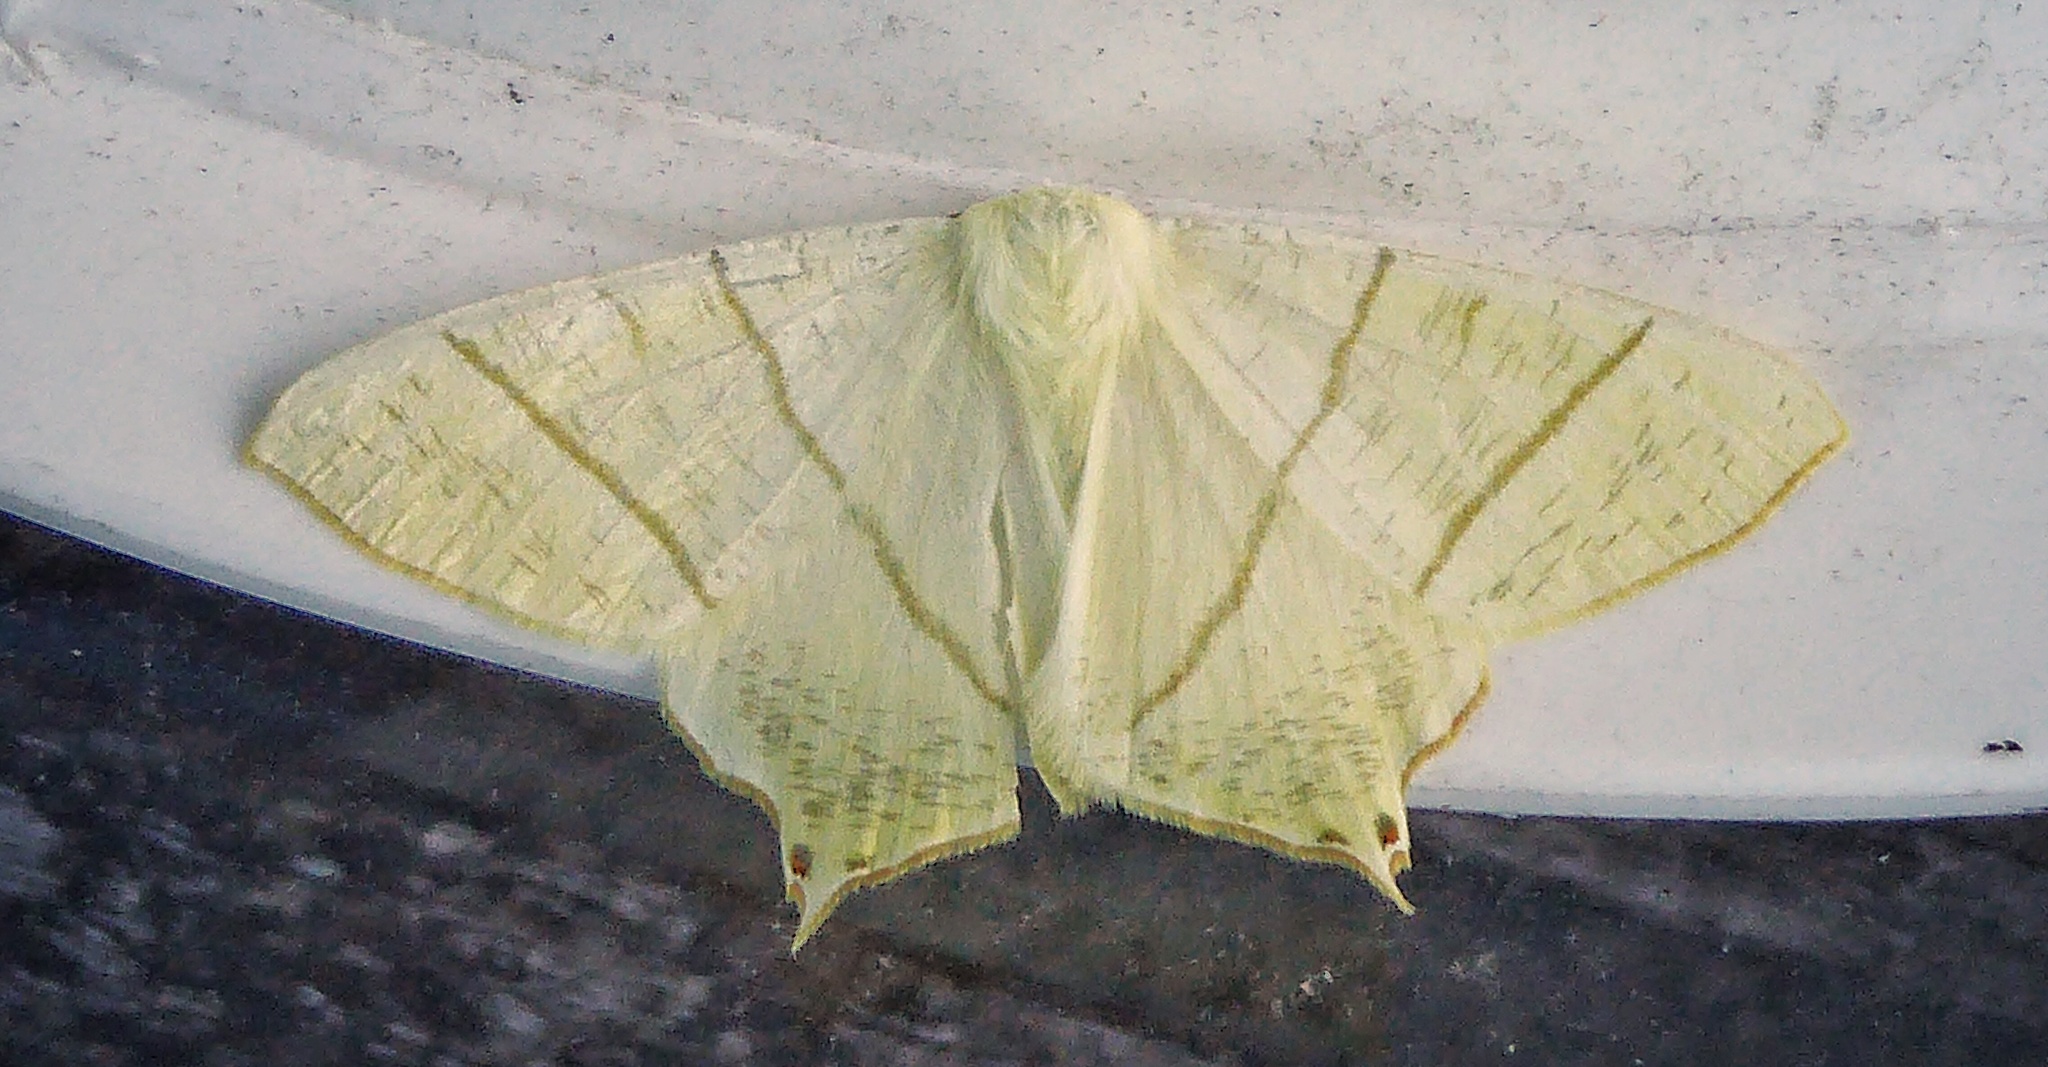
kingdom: Animalia
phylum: Arthropoda
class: Insecta
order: Lepidoptera
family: Geometridae
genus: Ourapteryx
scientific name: Ourapteryx sambucaria
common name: Swallow-tailed moth
